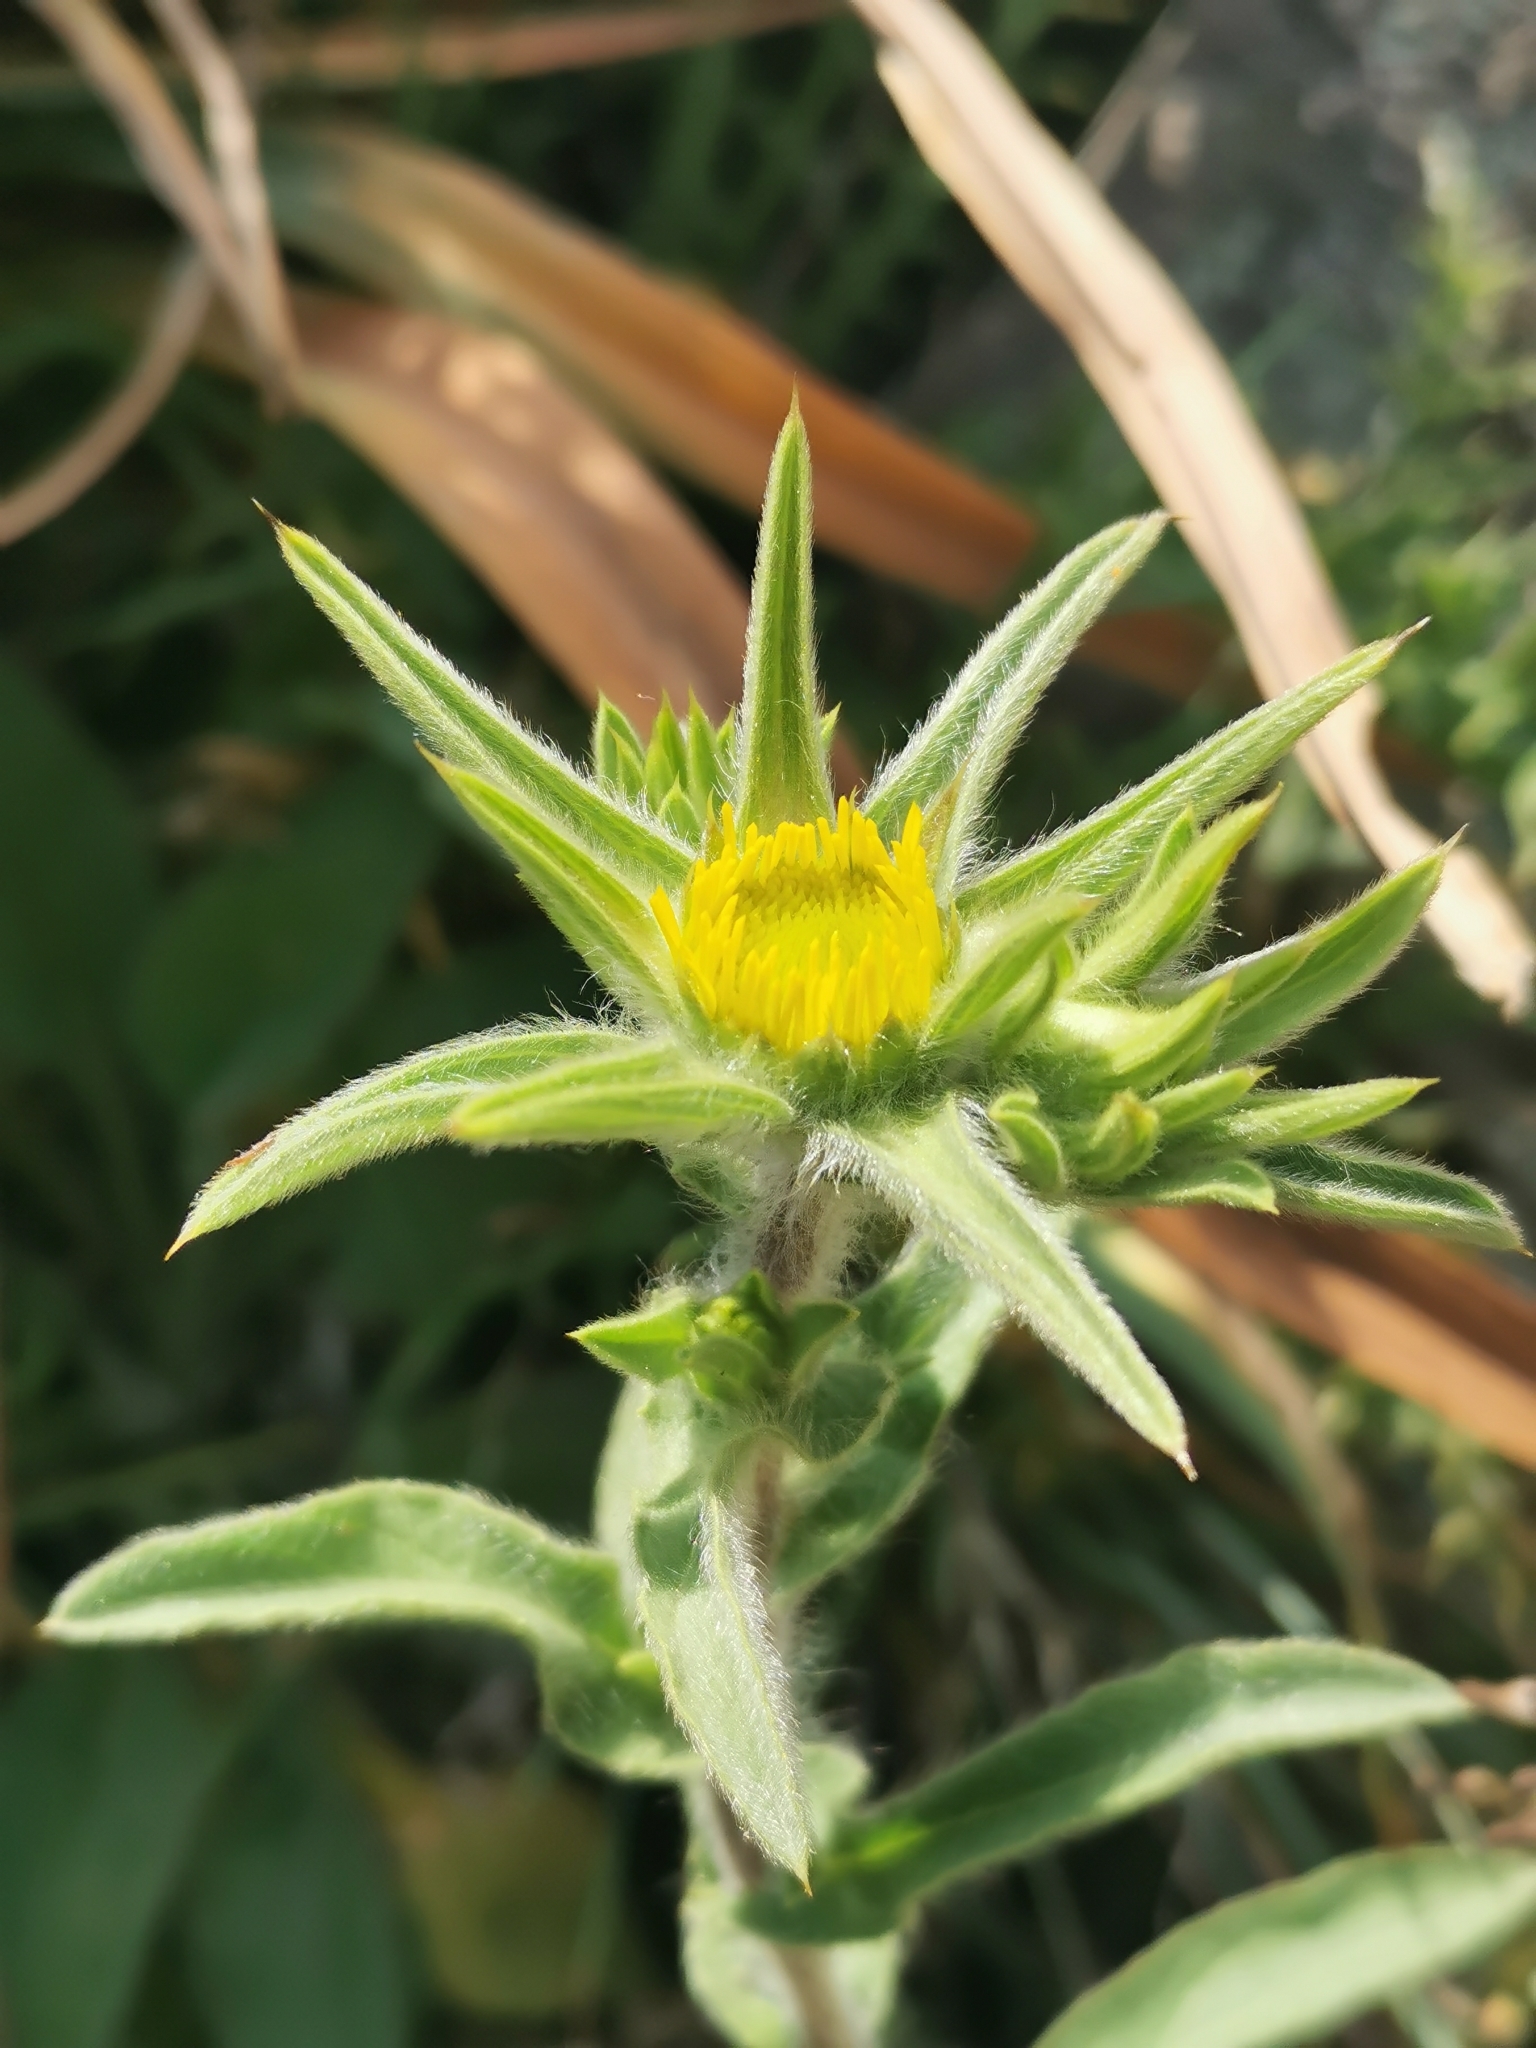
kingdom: Plantae
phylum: Tracheophyta
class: Magnoliopsida
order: Asterales
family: Asteraceae
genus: Pallenis
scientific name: Pallenis spinosa
